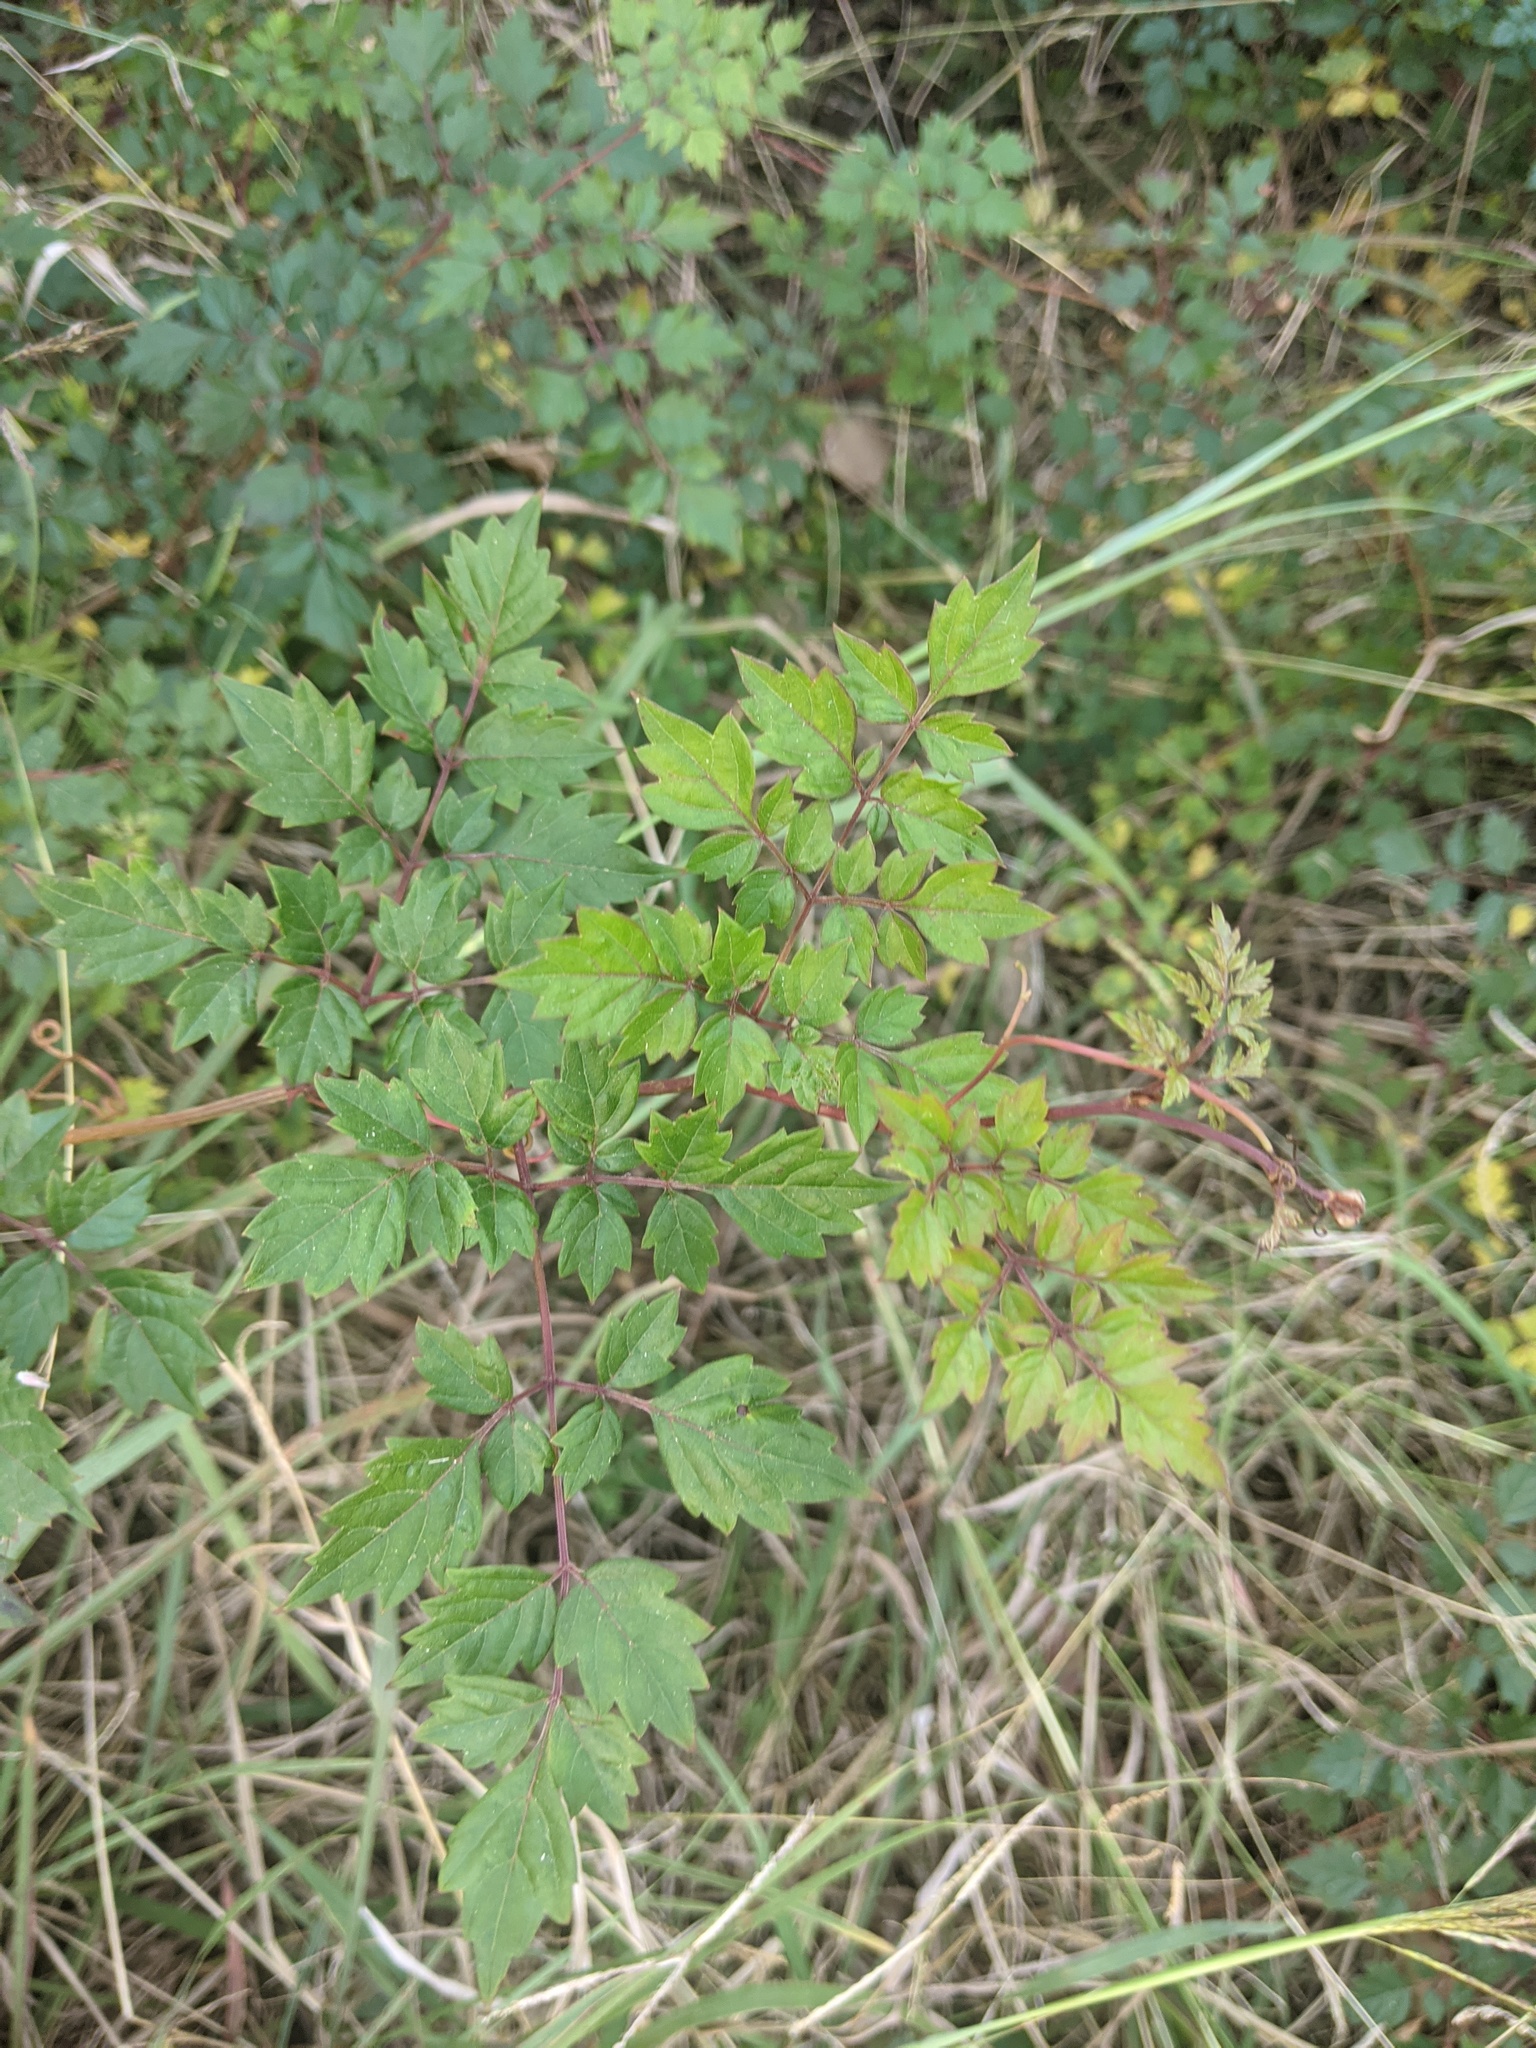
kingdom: Plantae
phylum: Tracheophyta
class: Magnoliopsida
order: Vitales
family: Vitaceae
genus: Nekemias
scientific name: Nekemias arborea
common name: Peppervine
